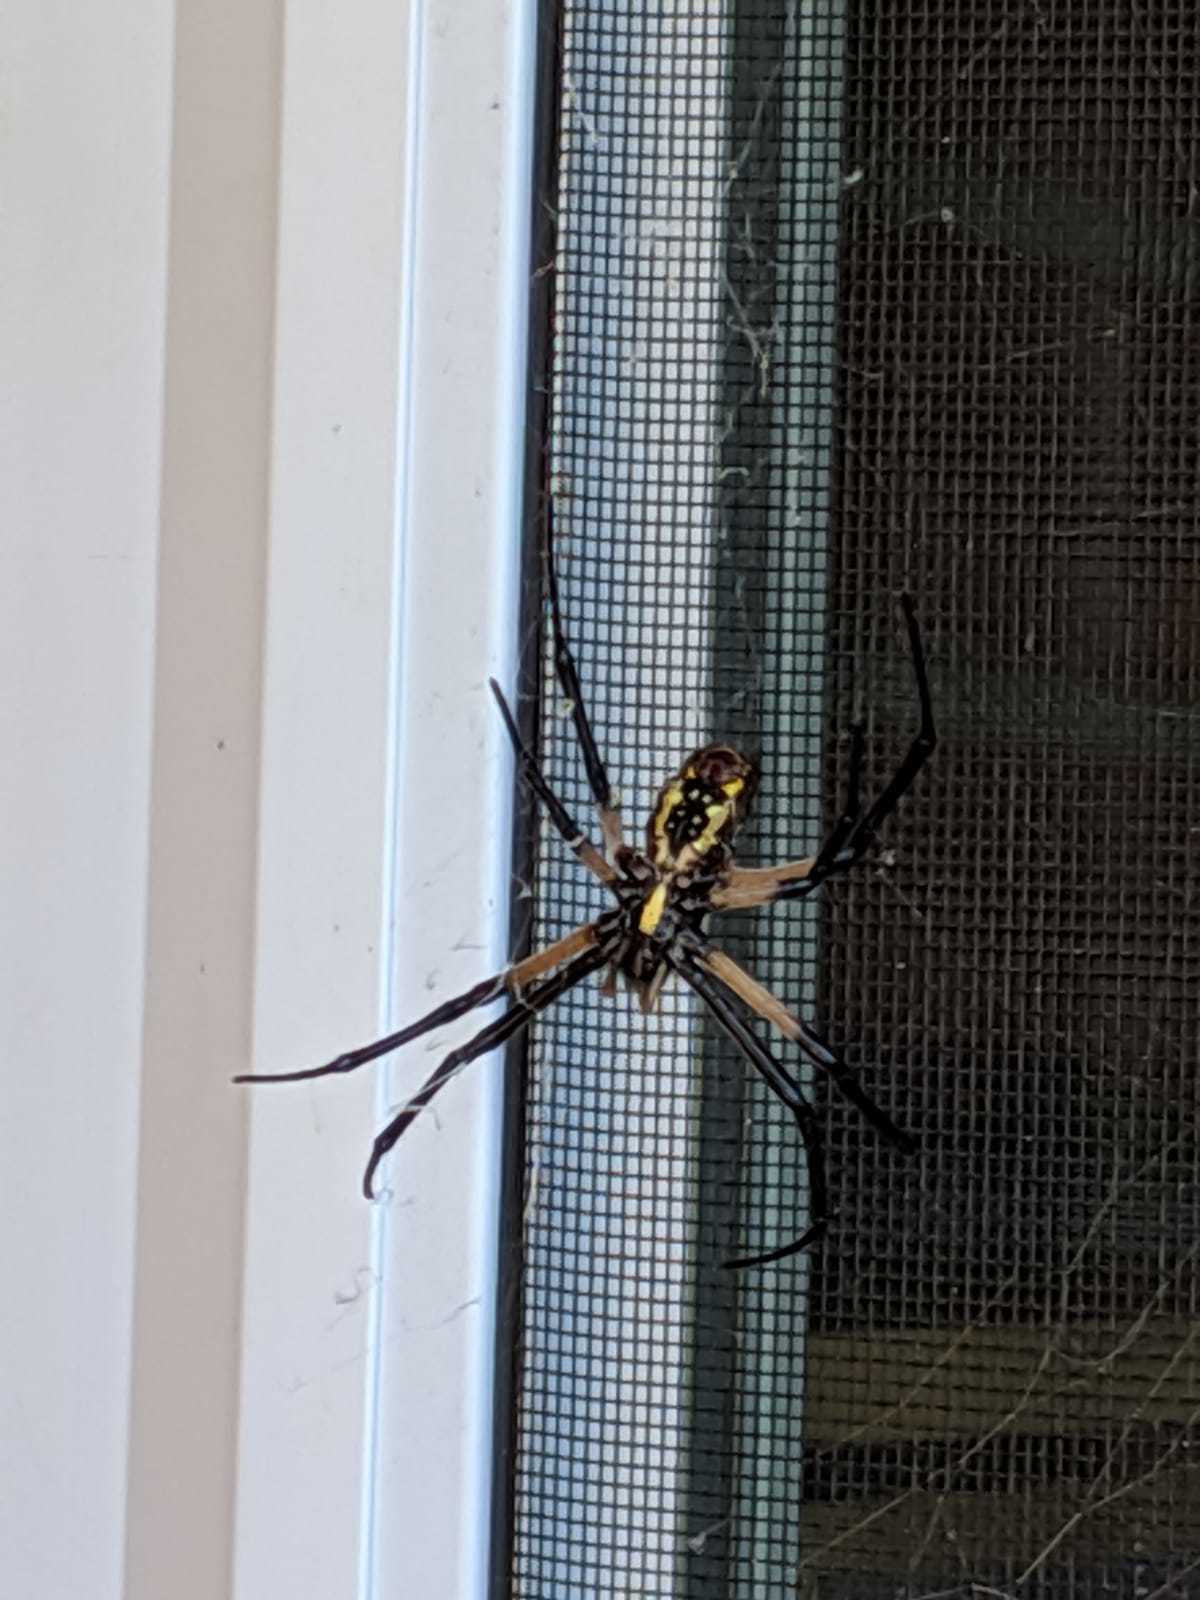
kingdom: Animalia
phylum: Arthropoda
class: Arachnida
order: Araneae
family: Araneidae
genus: Argiope
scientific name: Argiope aurantia
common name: Orb weavers
